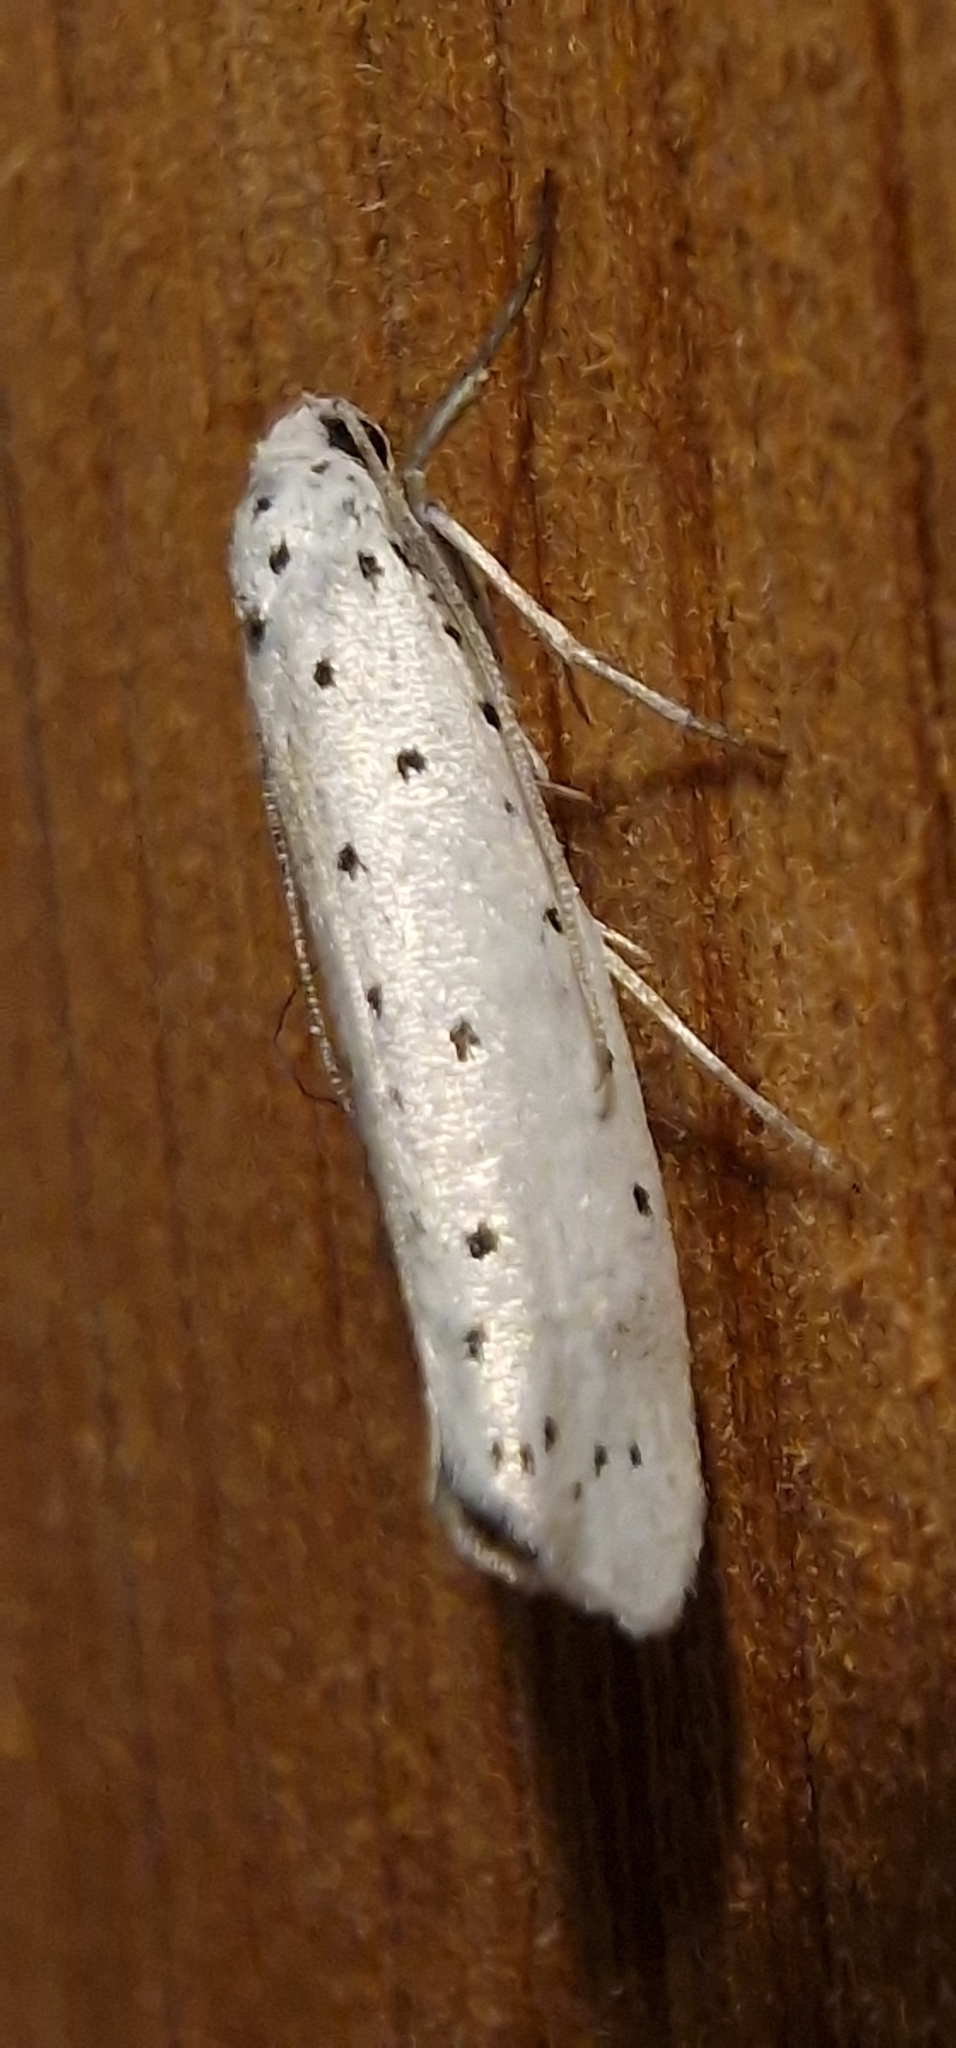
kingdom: Animalia
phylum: Arthropoda
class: Insecta
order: Lepidoptera
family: Yponomeutidae
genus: Yponomeuta
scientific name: Yponomeuta
